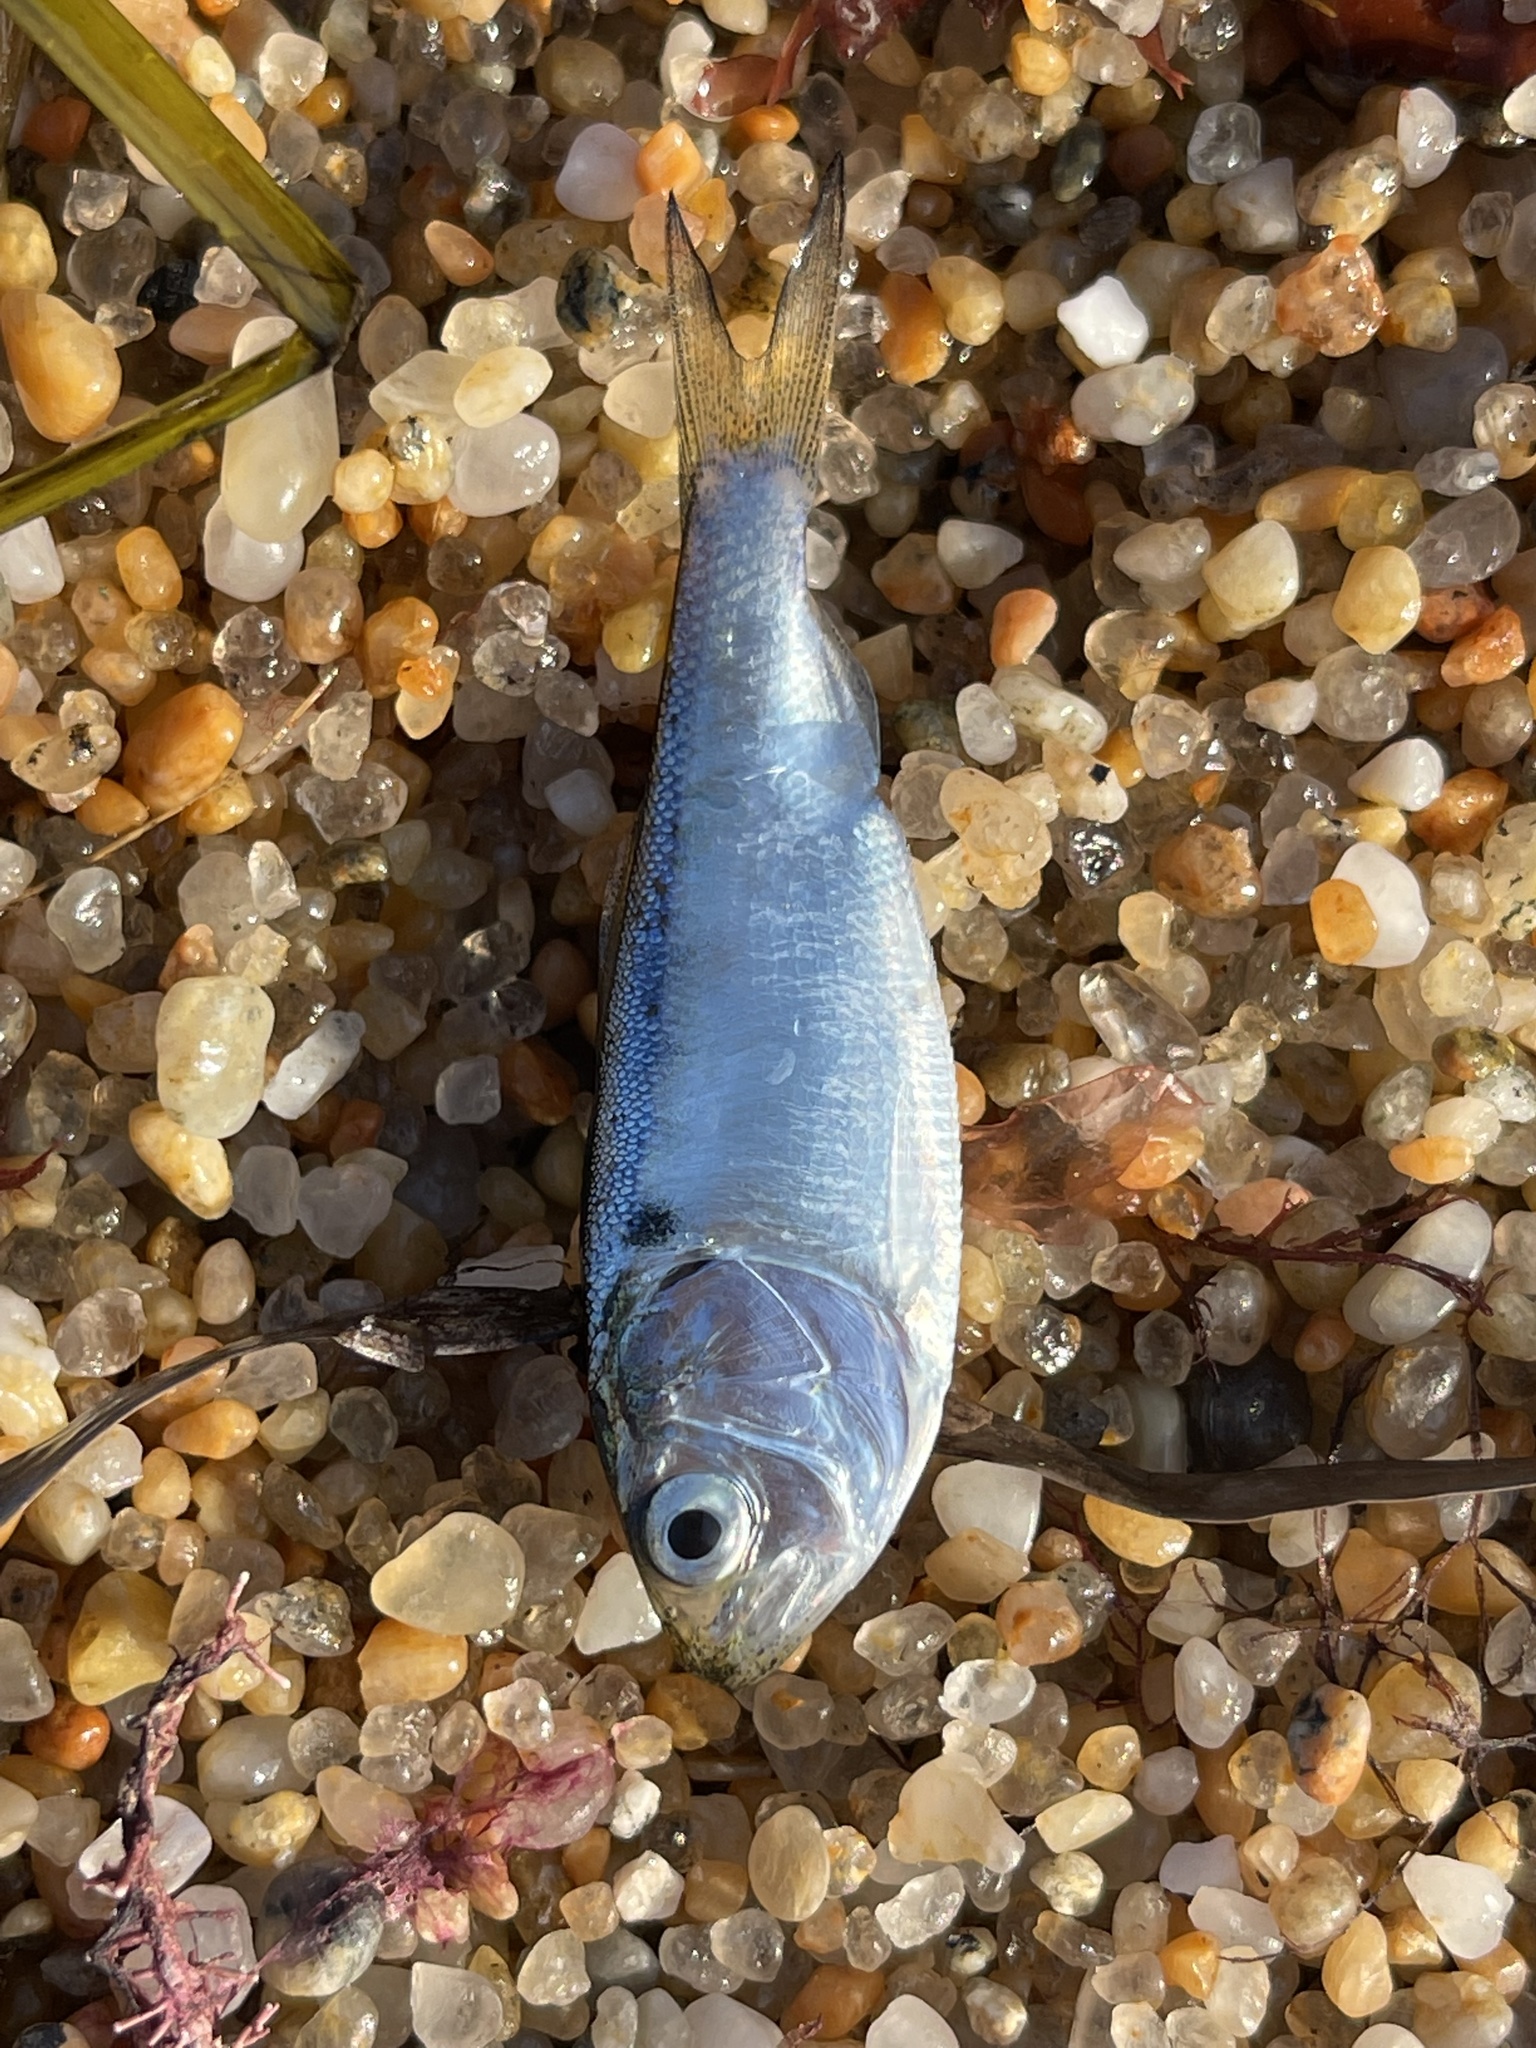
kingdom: Animalia
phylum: Chordata
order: Clupeiformes
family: Clupeidae
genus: Brevoortia
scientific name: Brevoortia tyrannus
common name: Atlantic menhaden
